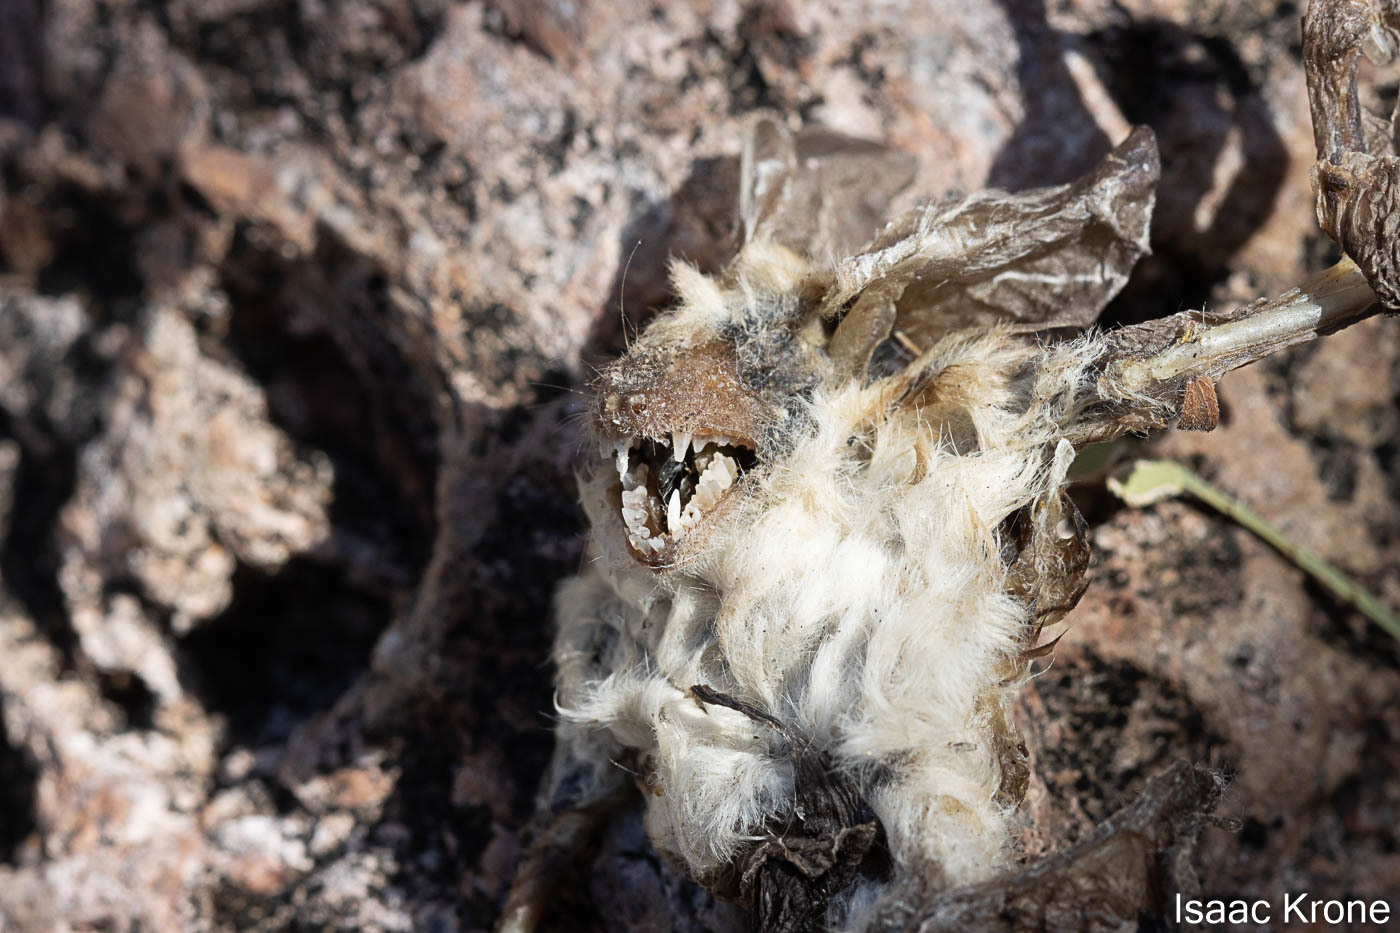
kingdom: Animalia
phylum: Chordata
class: Mammalia
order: Chiroptera
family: Vespertilionidae
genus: Antrozous
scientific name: Antrozous pallidus
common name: Pallid bat
